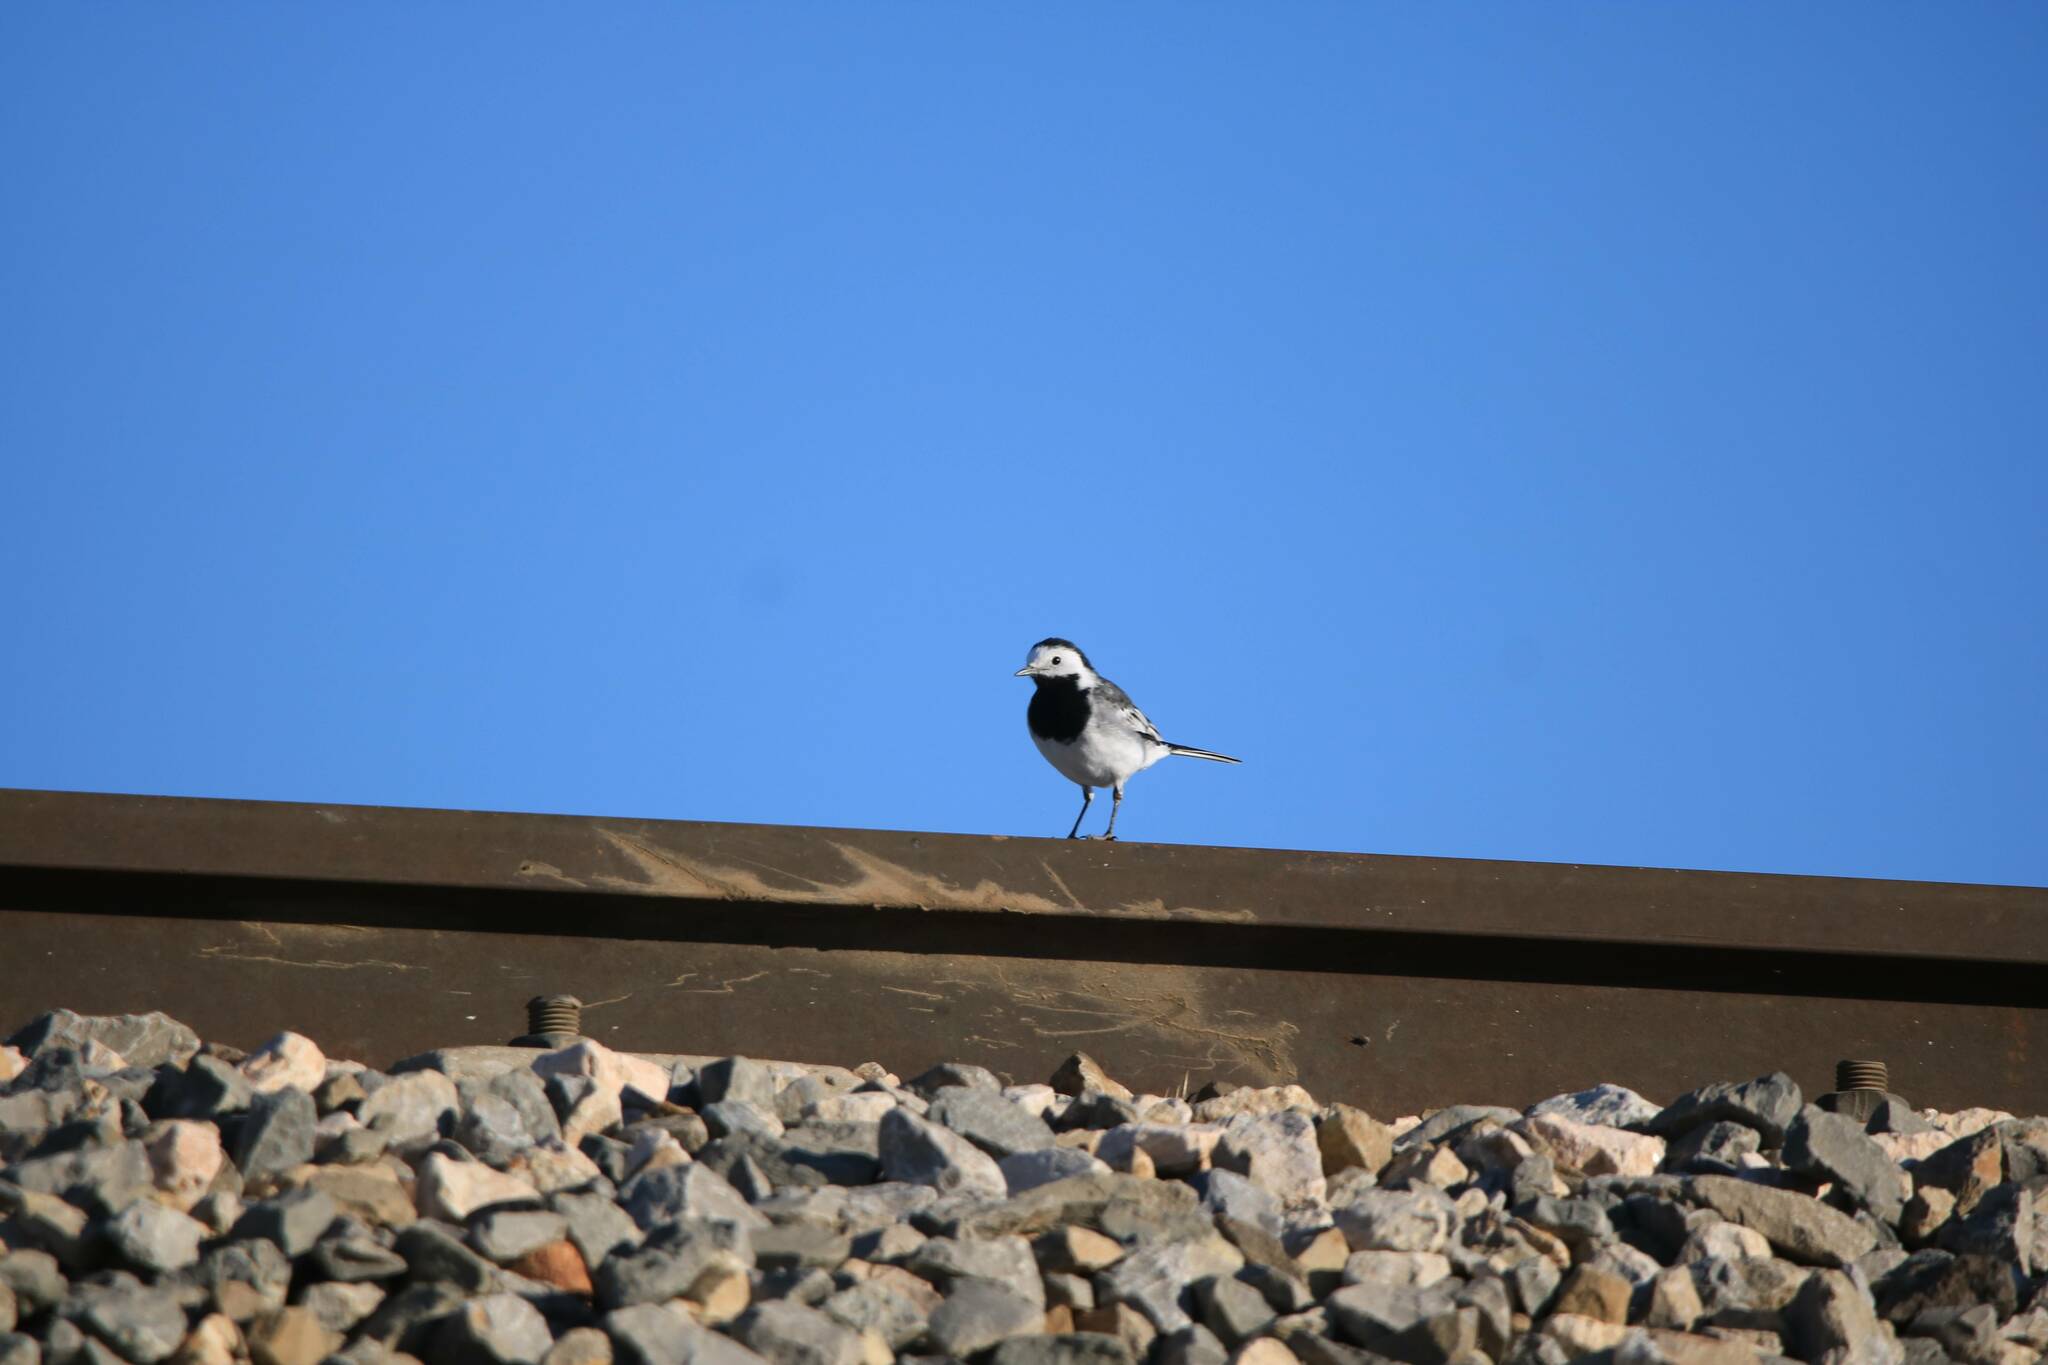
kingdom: Animalia
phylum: Chordata
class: Aves
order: Passeriformes
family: Motacillidae
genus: Motacilla
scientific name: Motacilla alba
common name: White wagtail
